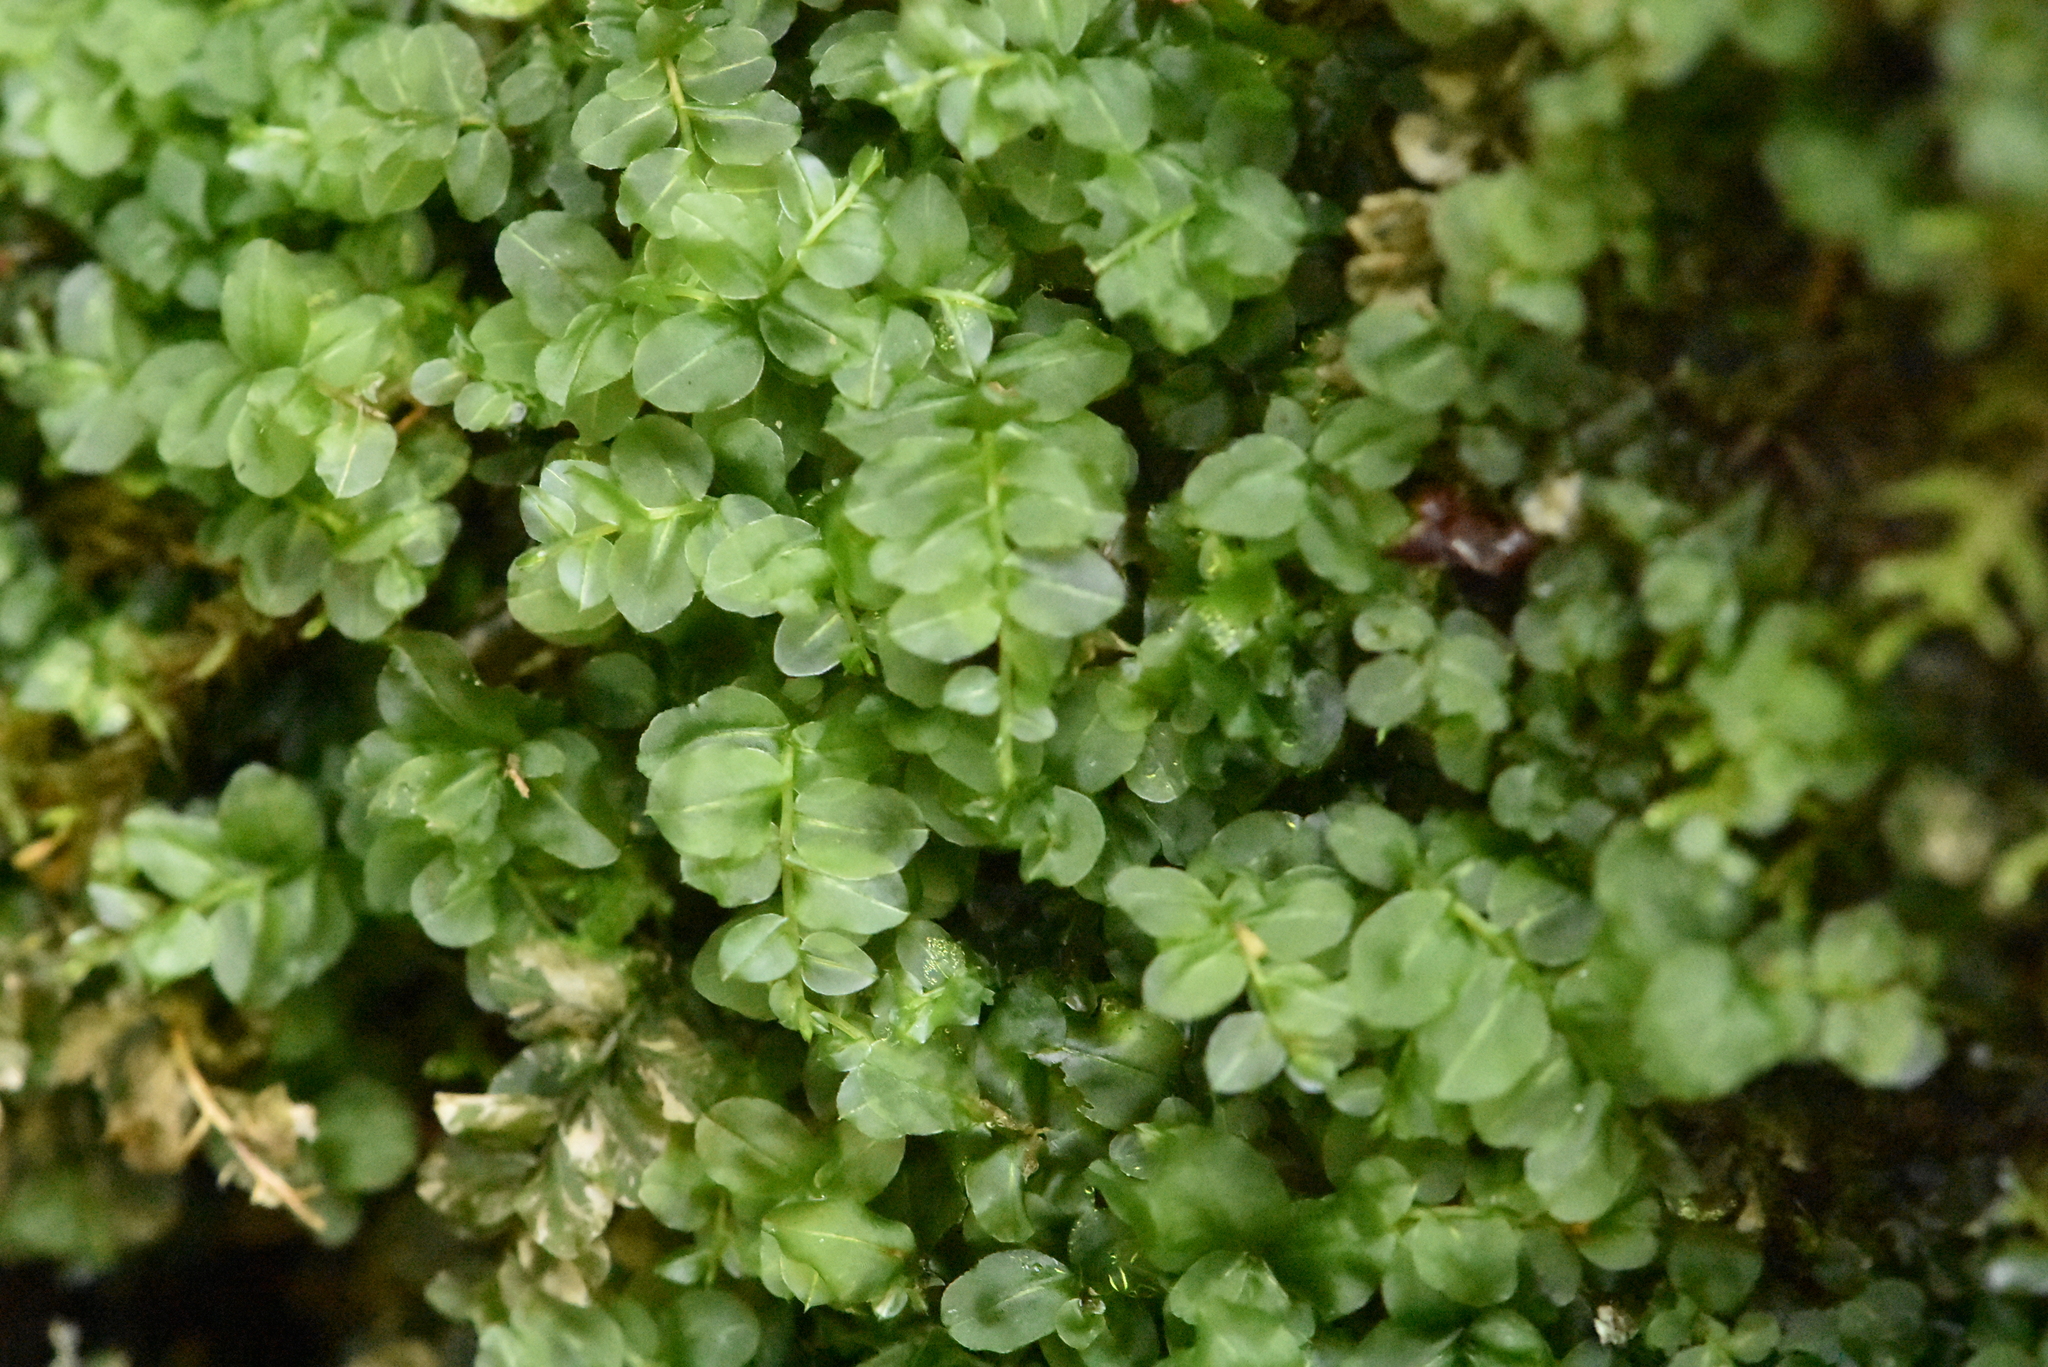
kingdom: Plantae
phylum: Bryophyta
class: Bryopsida
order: Bryales
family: Mniaceae
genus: Plagiomnium
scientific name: Plagiomnium affine
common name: Many-fruited thyme-moss
